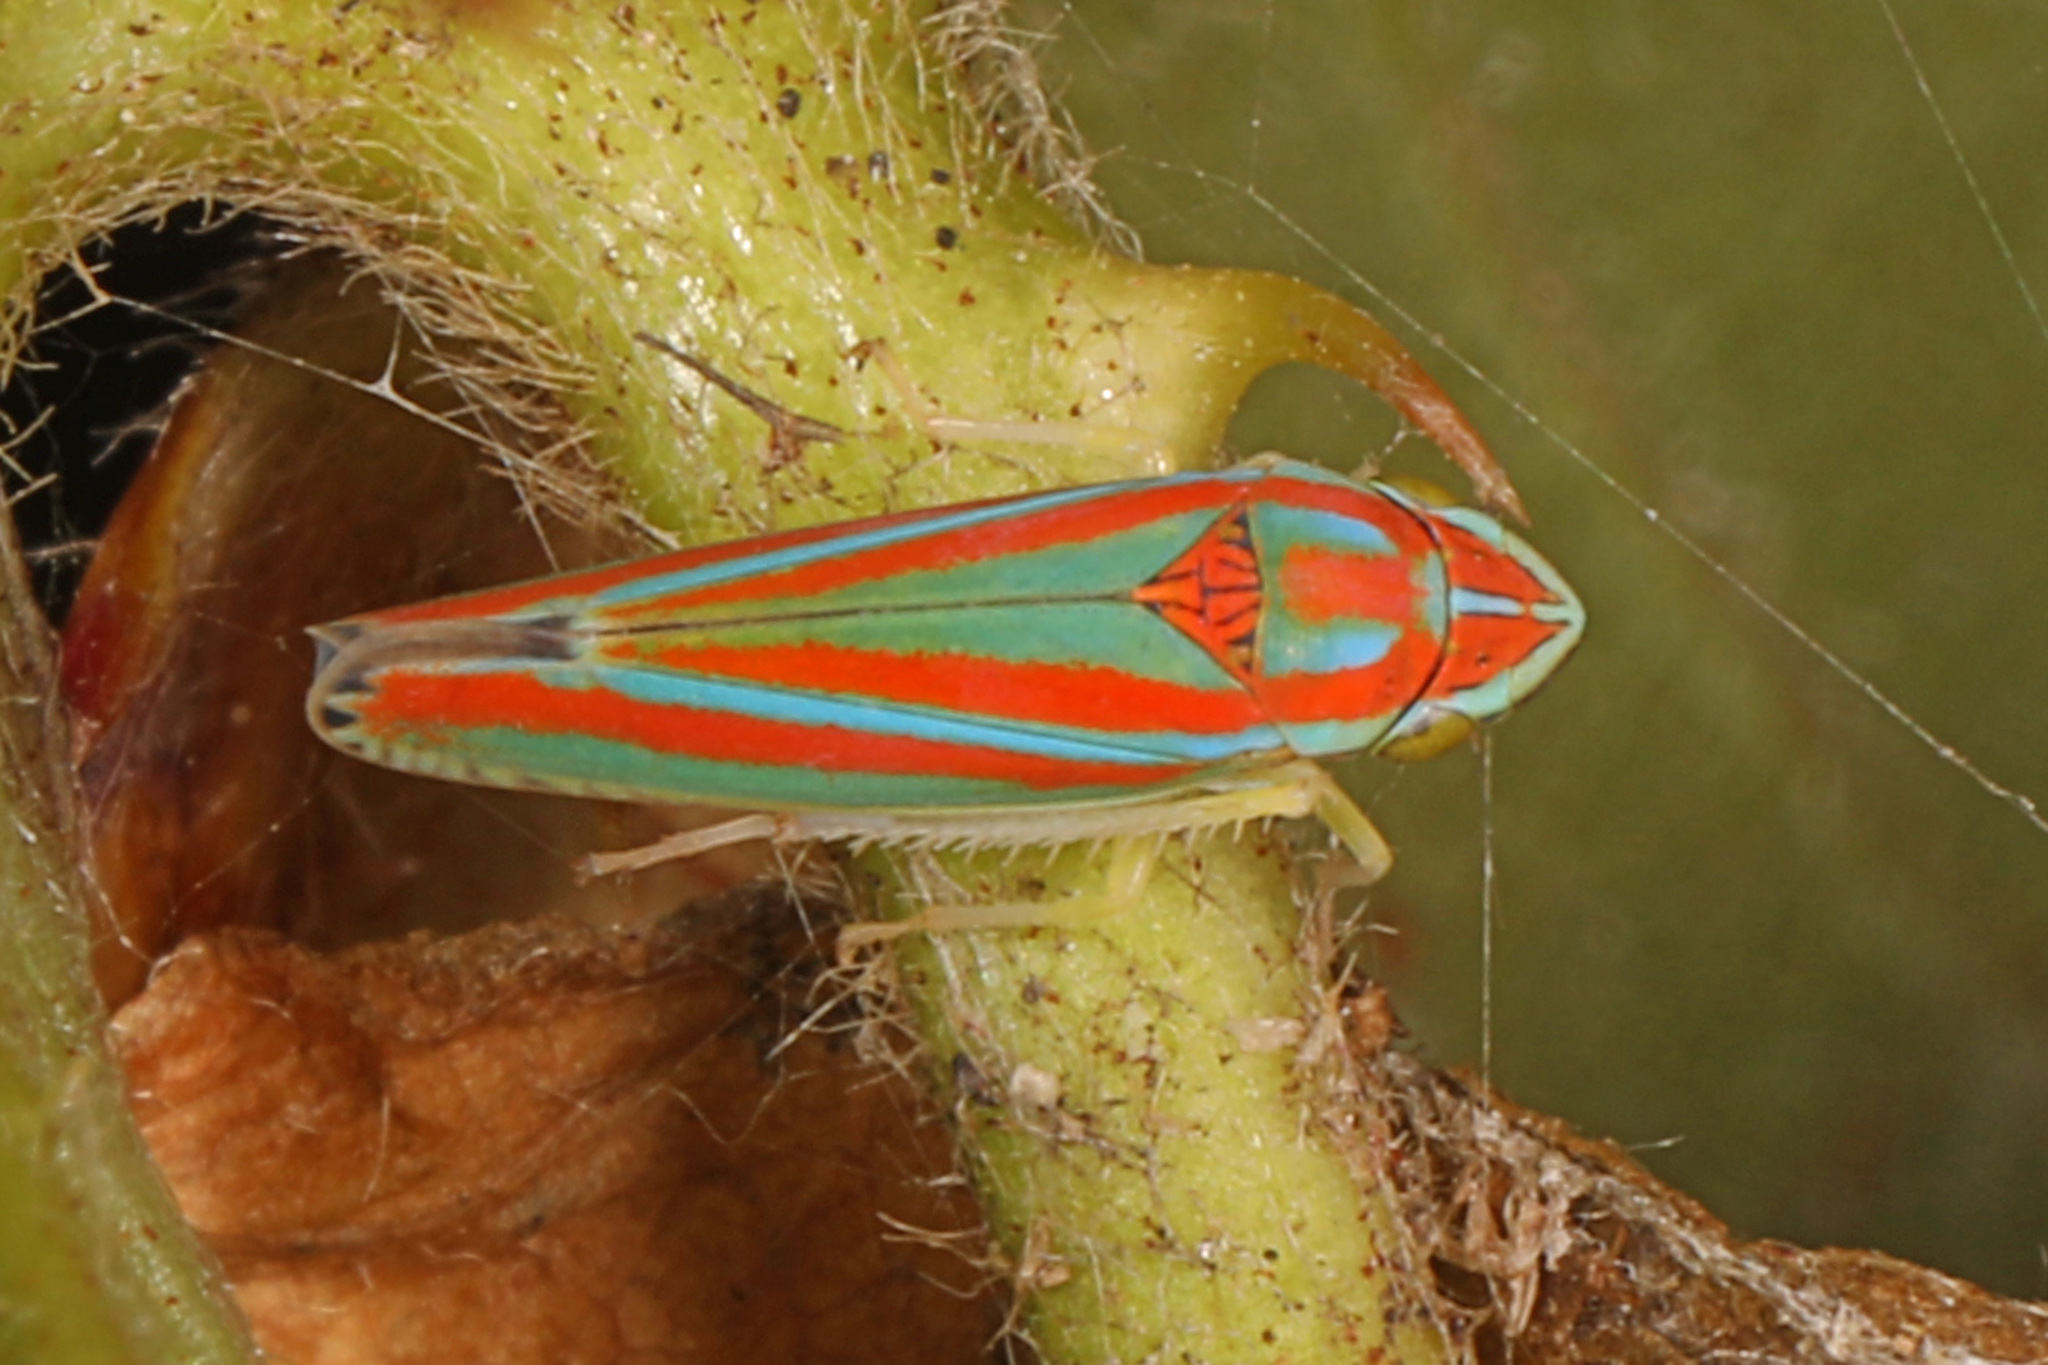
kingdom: Animalia
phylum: Arthropoda
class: Insecta
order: Hemiptera
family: Cicadellidae
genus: Graphocephala
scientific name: Graphocephala versuta
